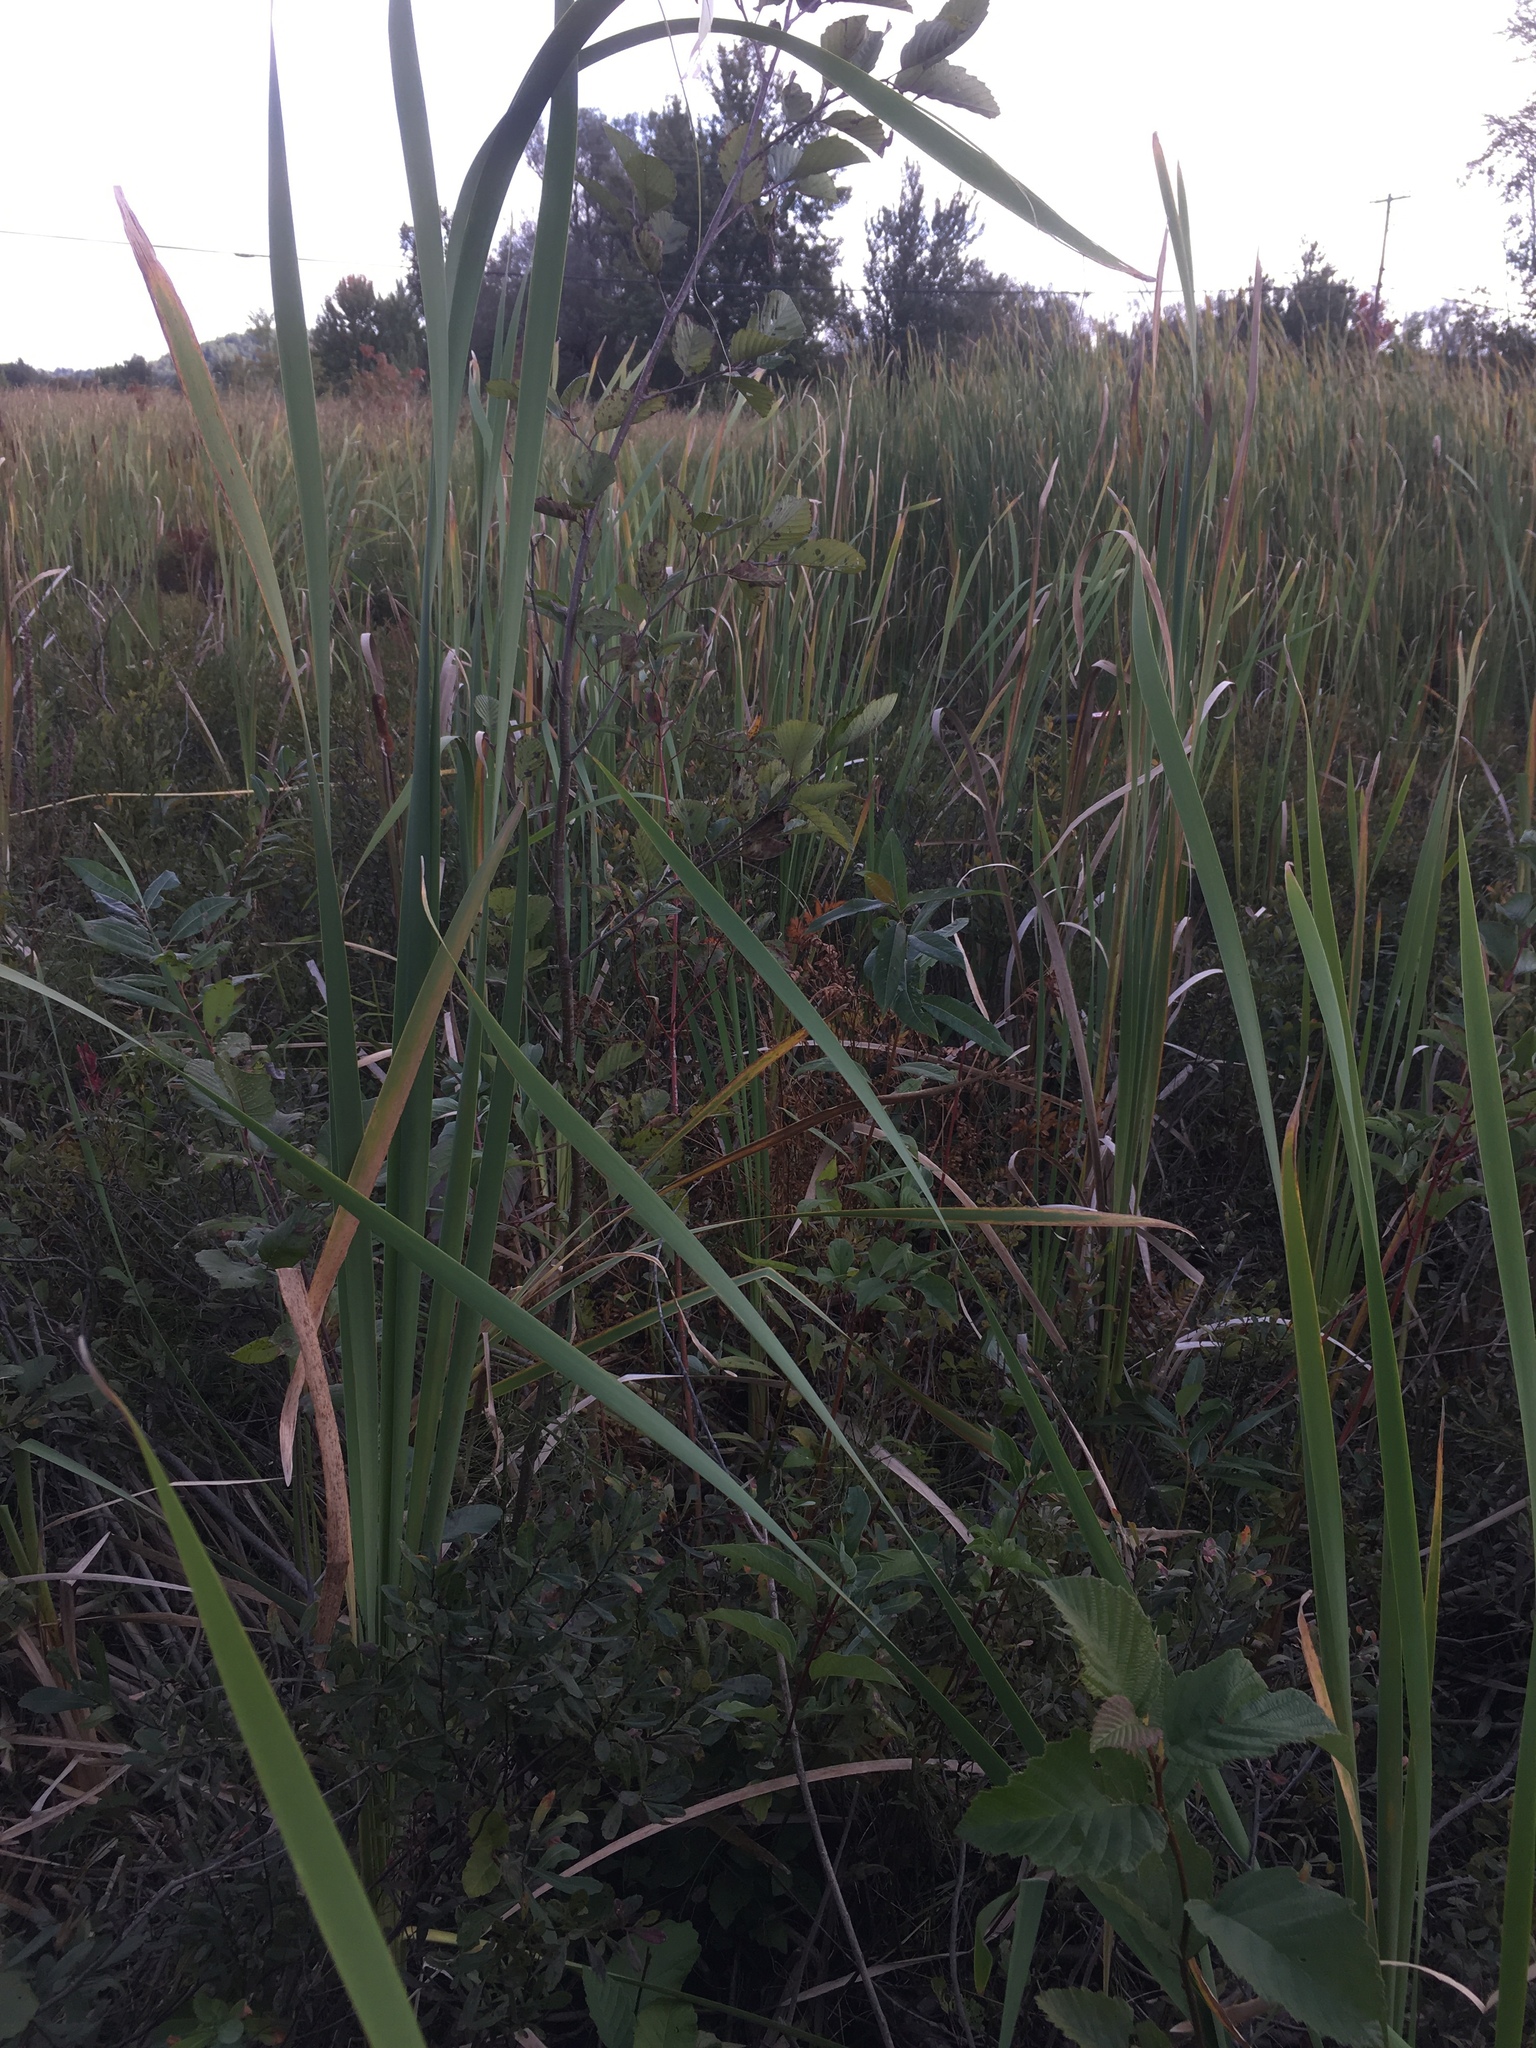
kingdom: Plantae
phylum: Tracheophyta
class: Liliopsida
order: Poales
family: Typhaceae
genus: Typha
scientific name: Typha latifolia
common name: Broadleaf cattail
